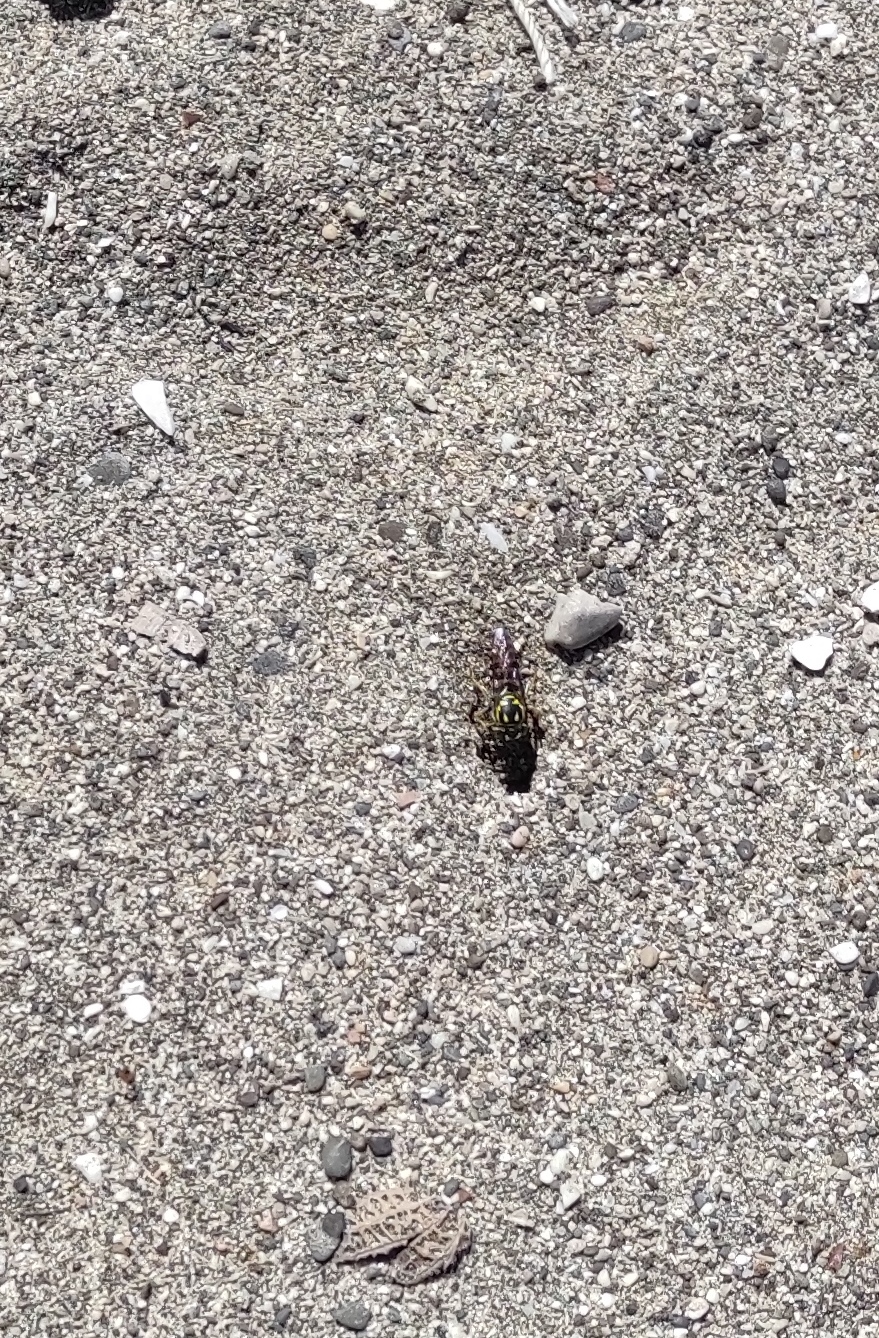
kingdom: Animalia
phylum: Arthropoda
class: Insecta
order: Hymenoptera
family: Crabronidae
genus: Bicyrtes
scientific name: Bicyrtes spinosus
